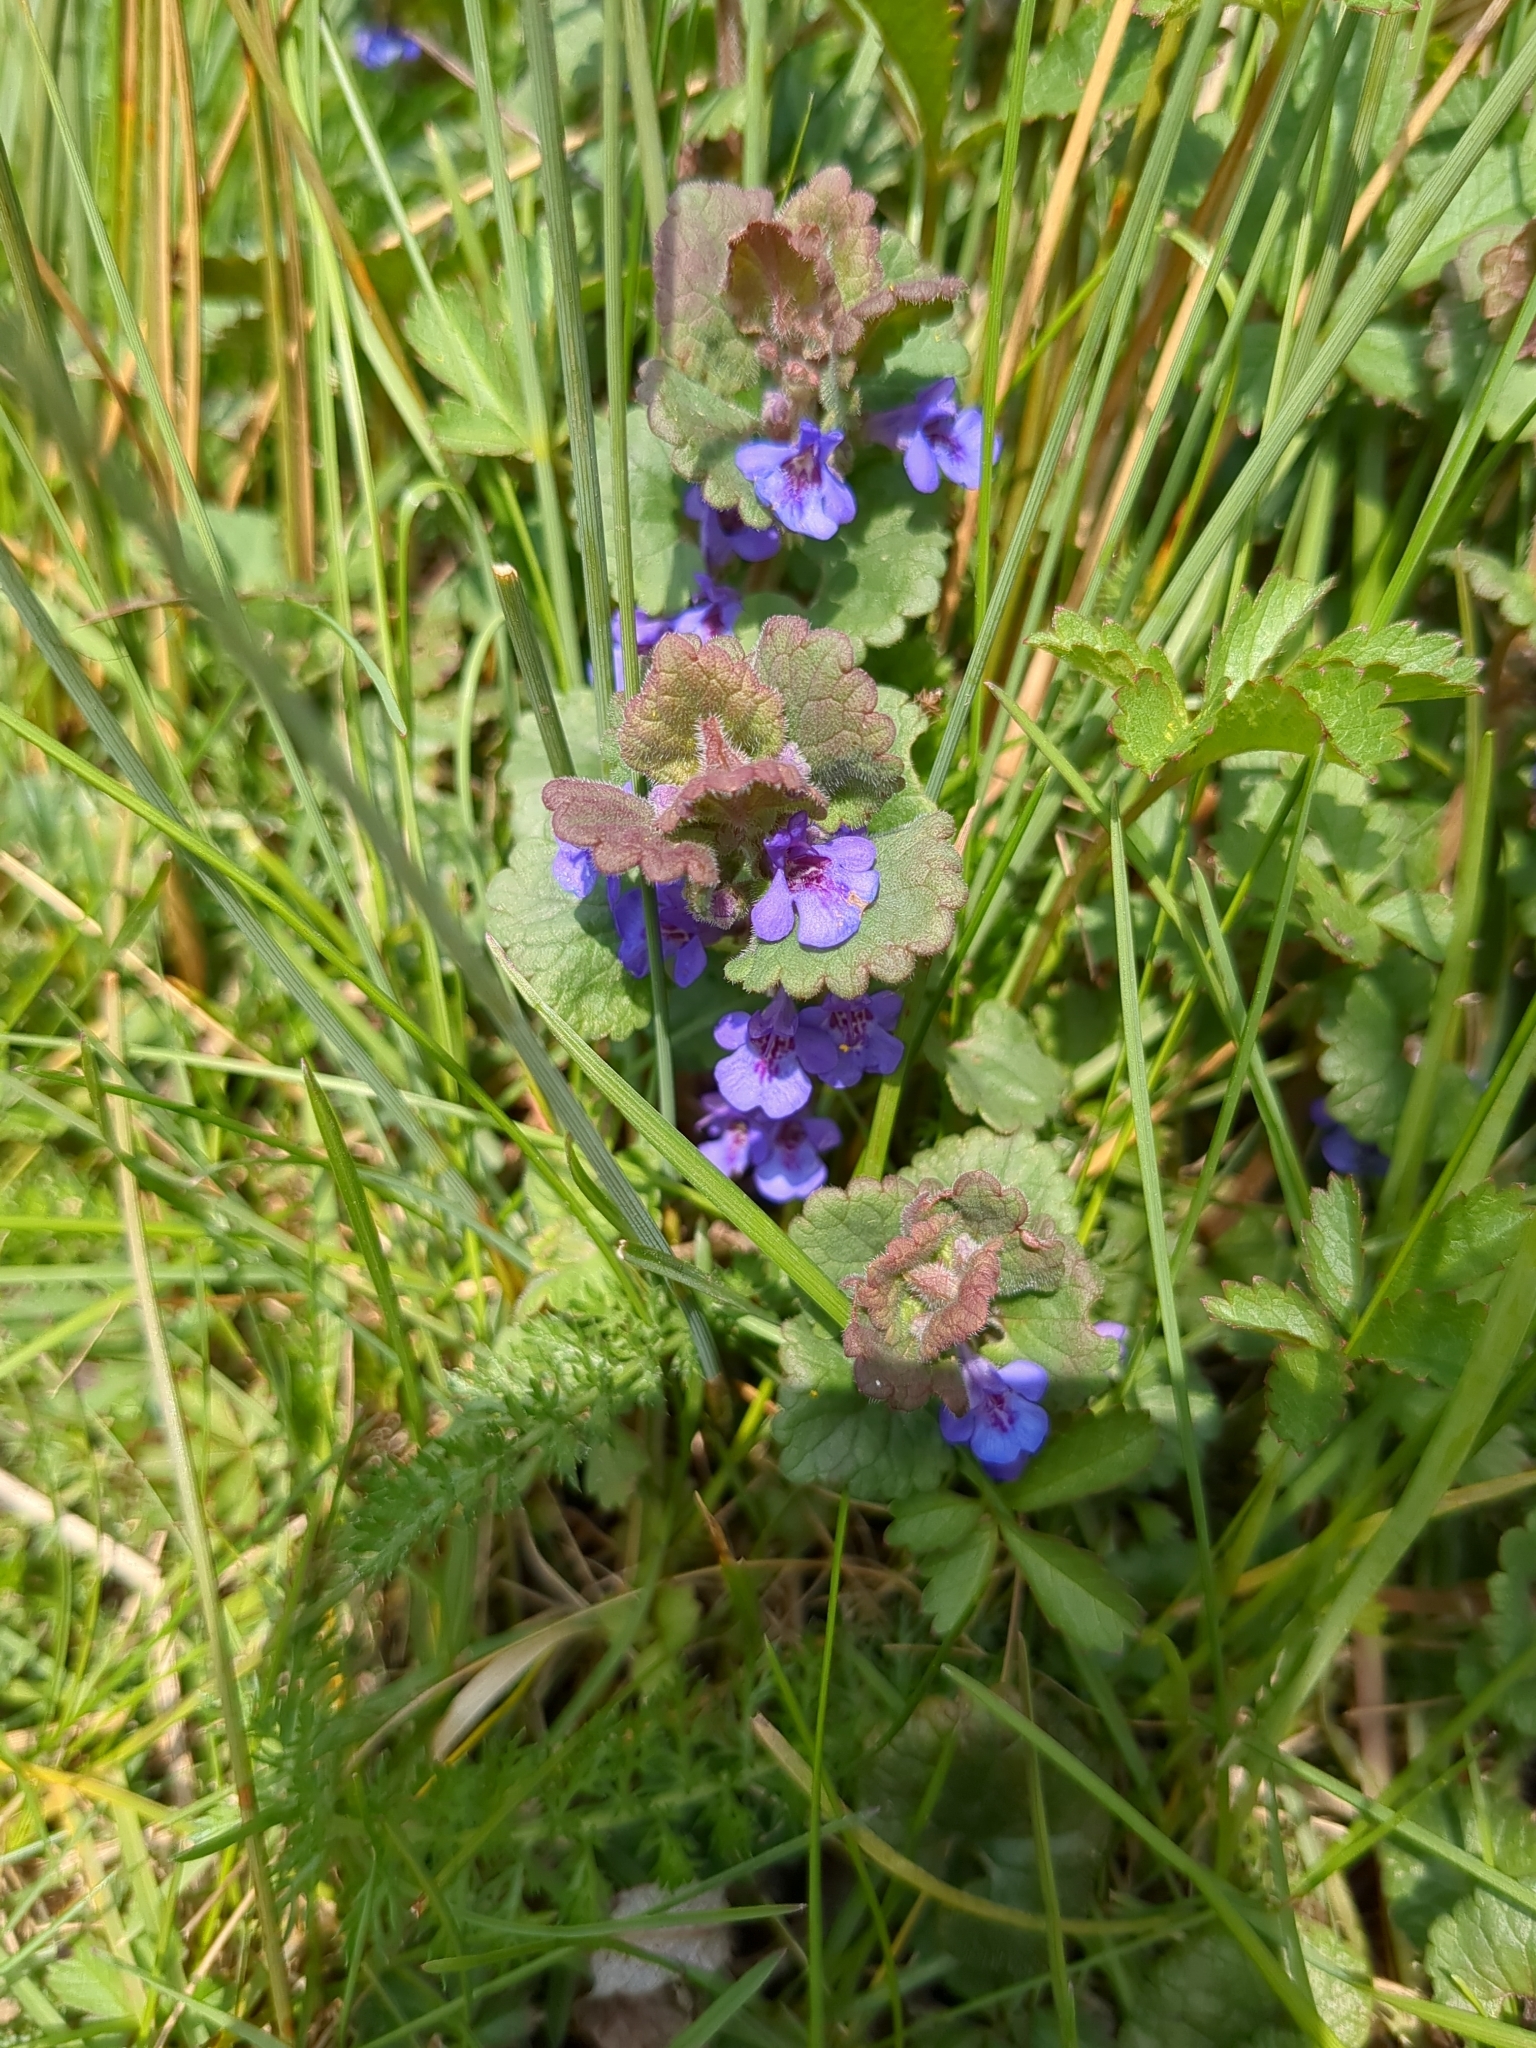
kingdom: Plantae
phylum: Tracheophyta
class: Magnoliopsida
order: Lamiales
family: Lamiaceae
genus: Glechoma
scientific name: Glechoma hederacea
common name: Ground ivy
